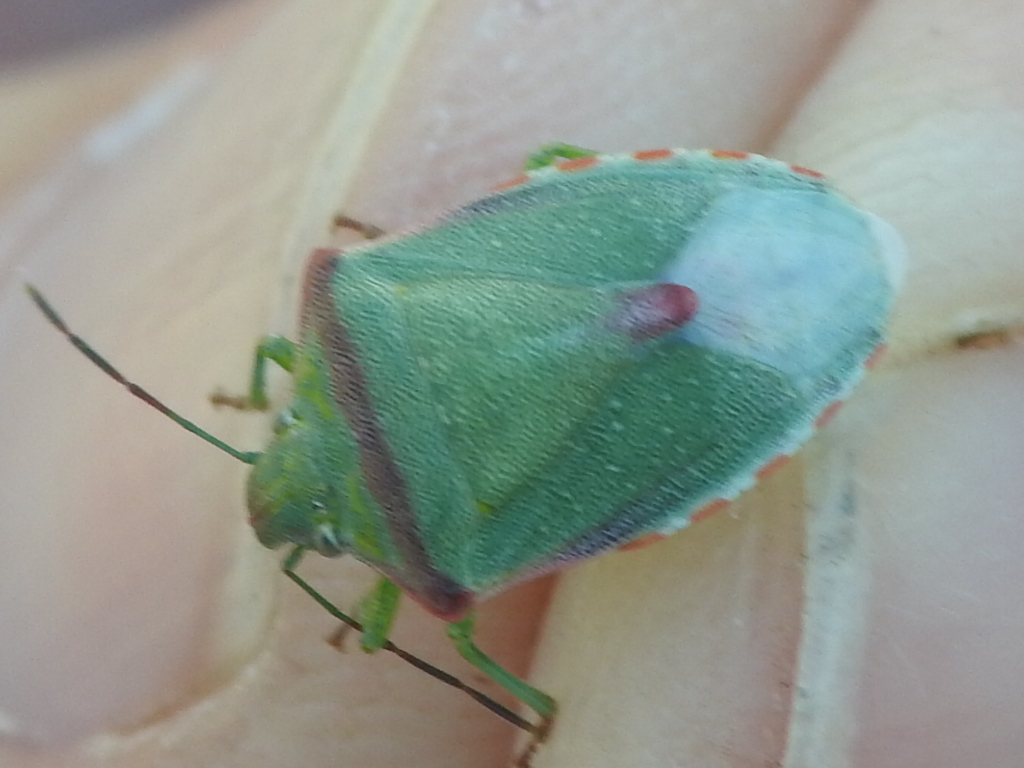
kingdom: Animalia
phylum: Arthropoda
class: Insecta
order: Hemiptera
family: Pentatomidae
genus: Thyanta
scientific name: Thyanta accerra
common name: Stink bug
